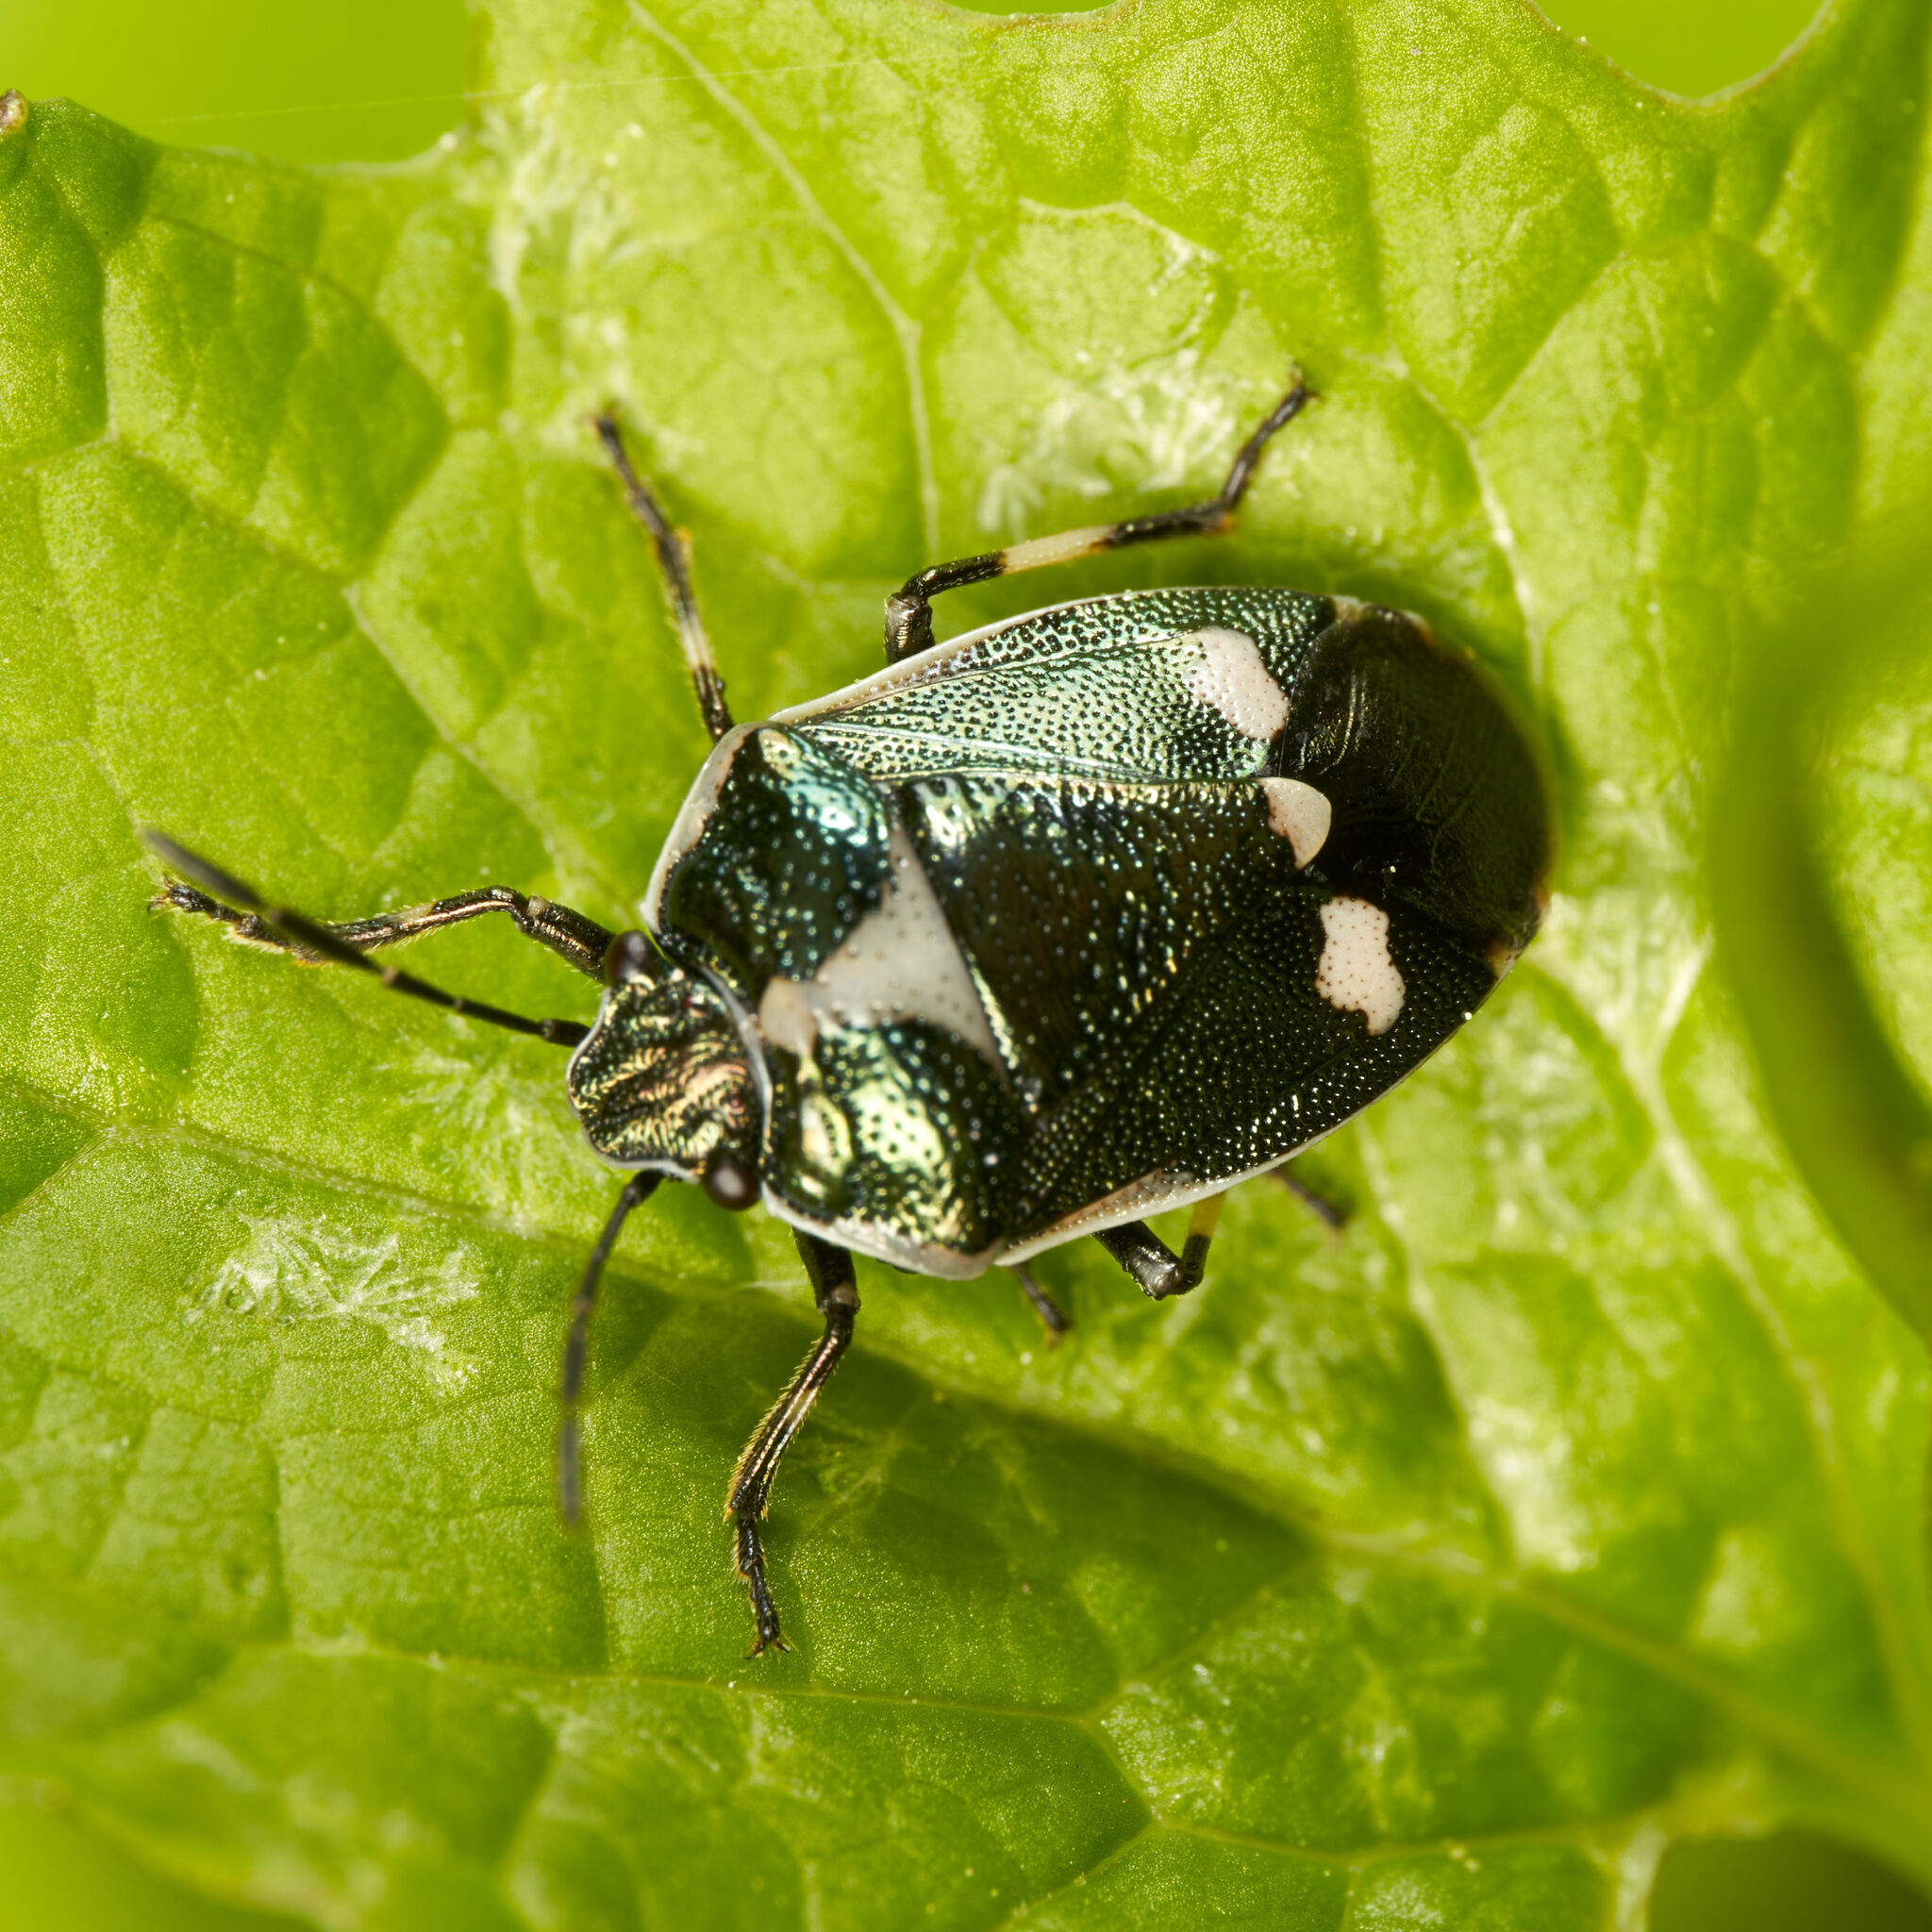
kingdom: Animalia
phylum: Arthropoda
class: Insecta
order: Hemiptera
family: Pentatomidae
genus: Eurydema
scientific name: Eurydema oleracea
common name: Cabbage bug
